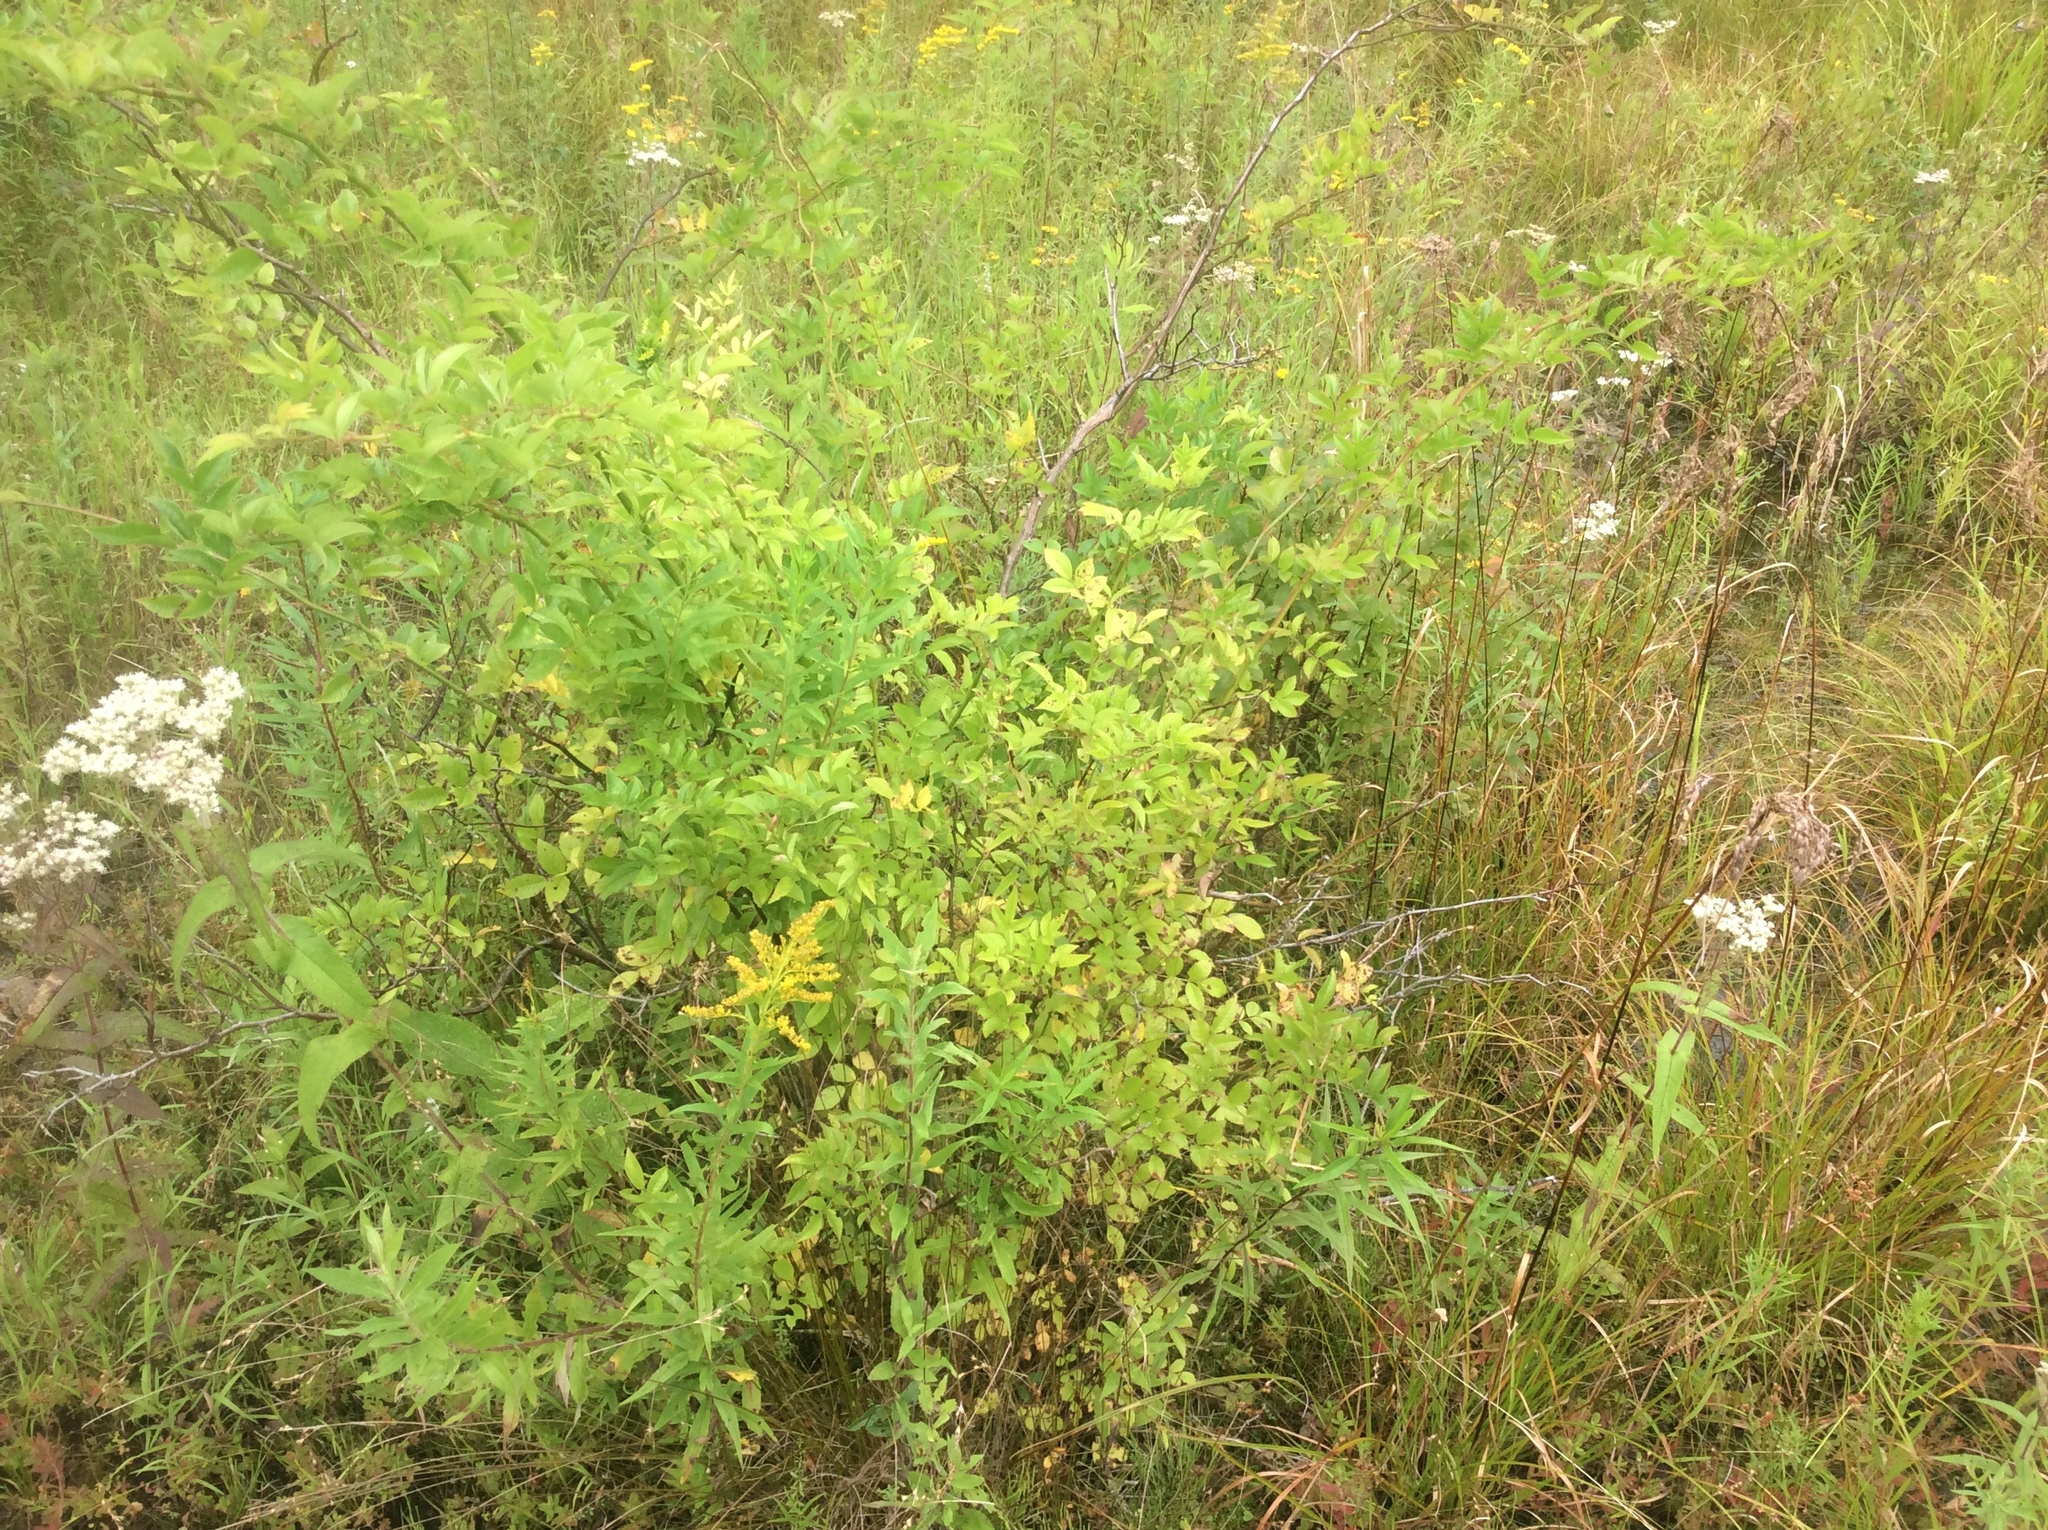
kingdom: Plantae
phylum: Tracheophyta
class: Magnoliopsida
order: Rosales
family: Rosaceae
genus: Rosa
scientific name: Rosa multiflora
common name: Multiflora rose
